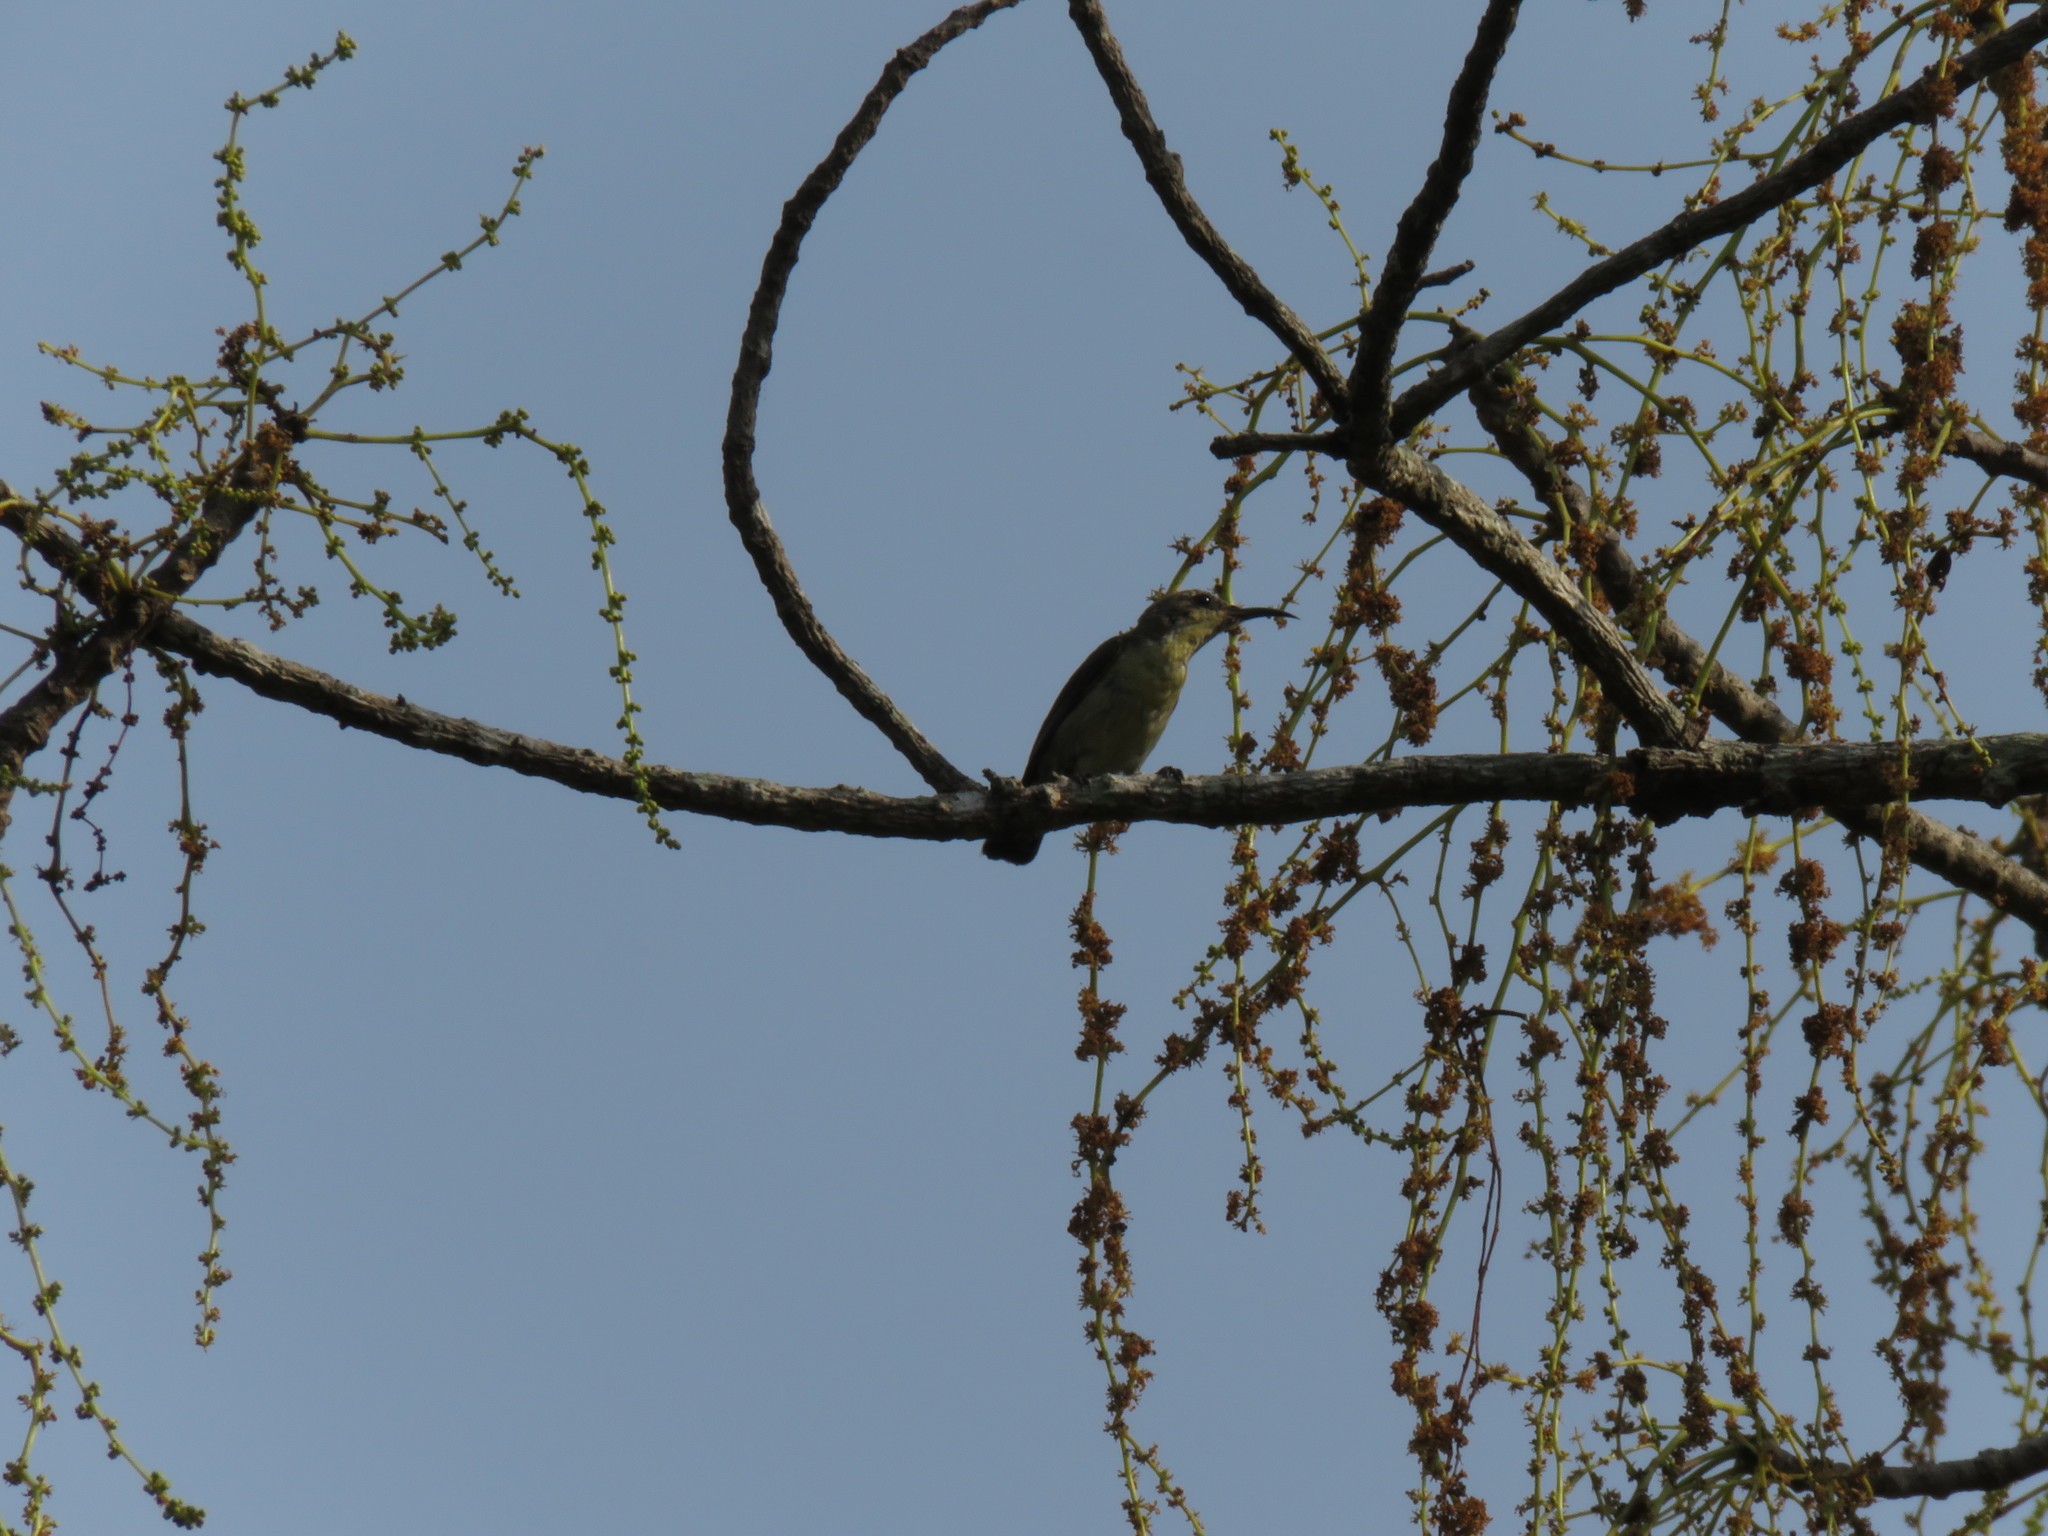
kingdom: Animalia
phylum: Chordata
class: Aves
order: Passeriformes
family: Nectariniidae
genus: Cinnyris
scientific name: Cinnyris asiaticus
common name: Purple sunbird
